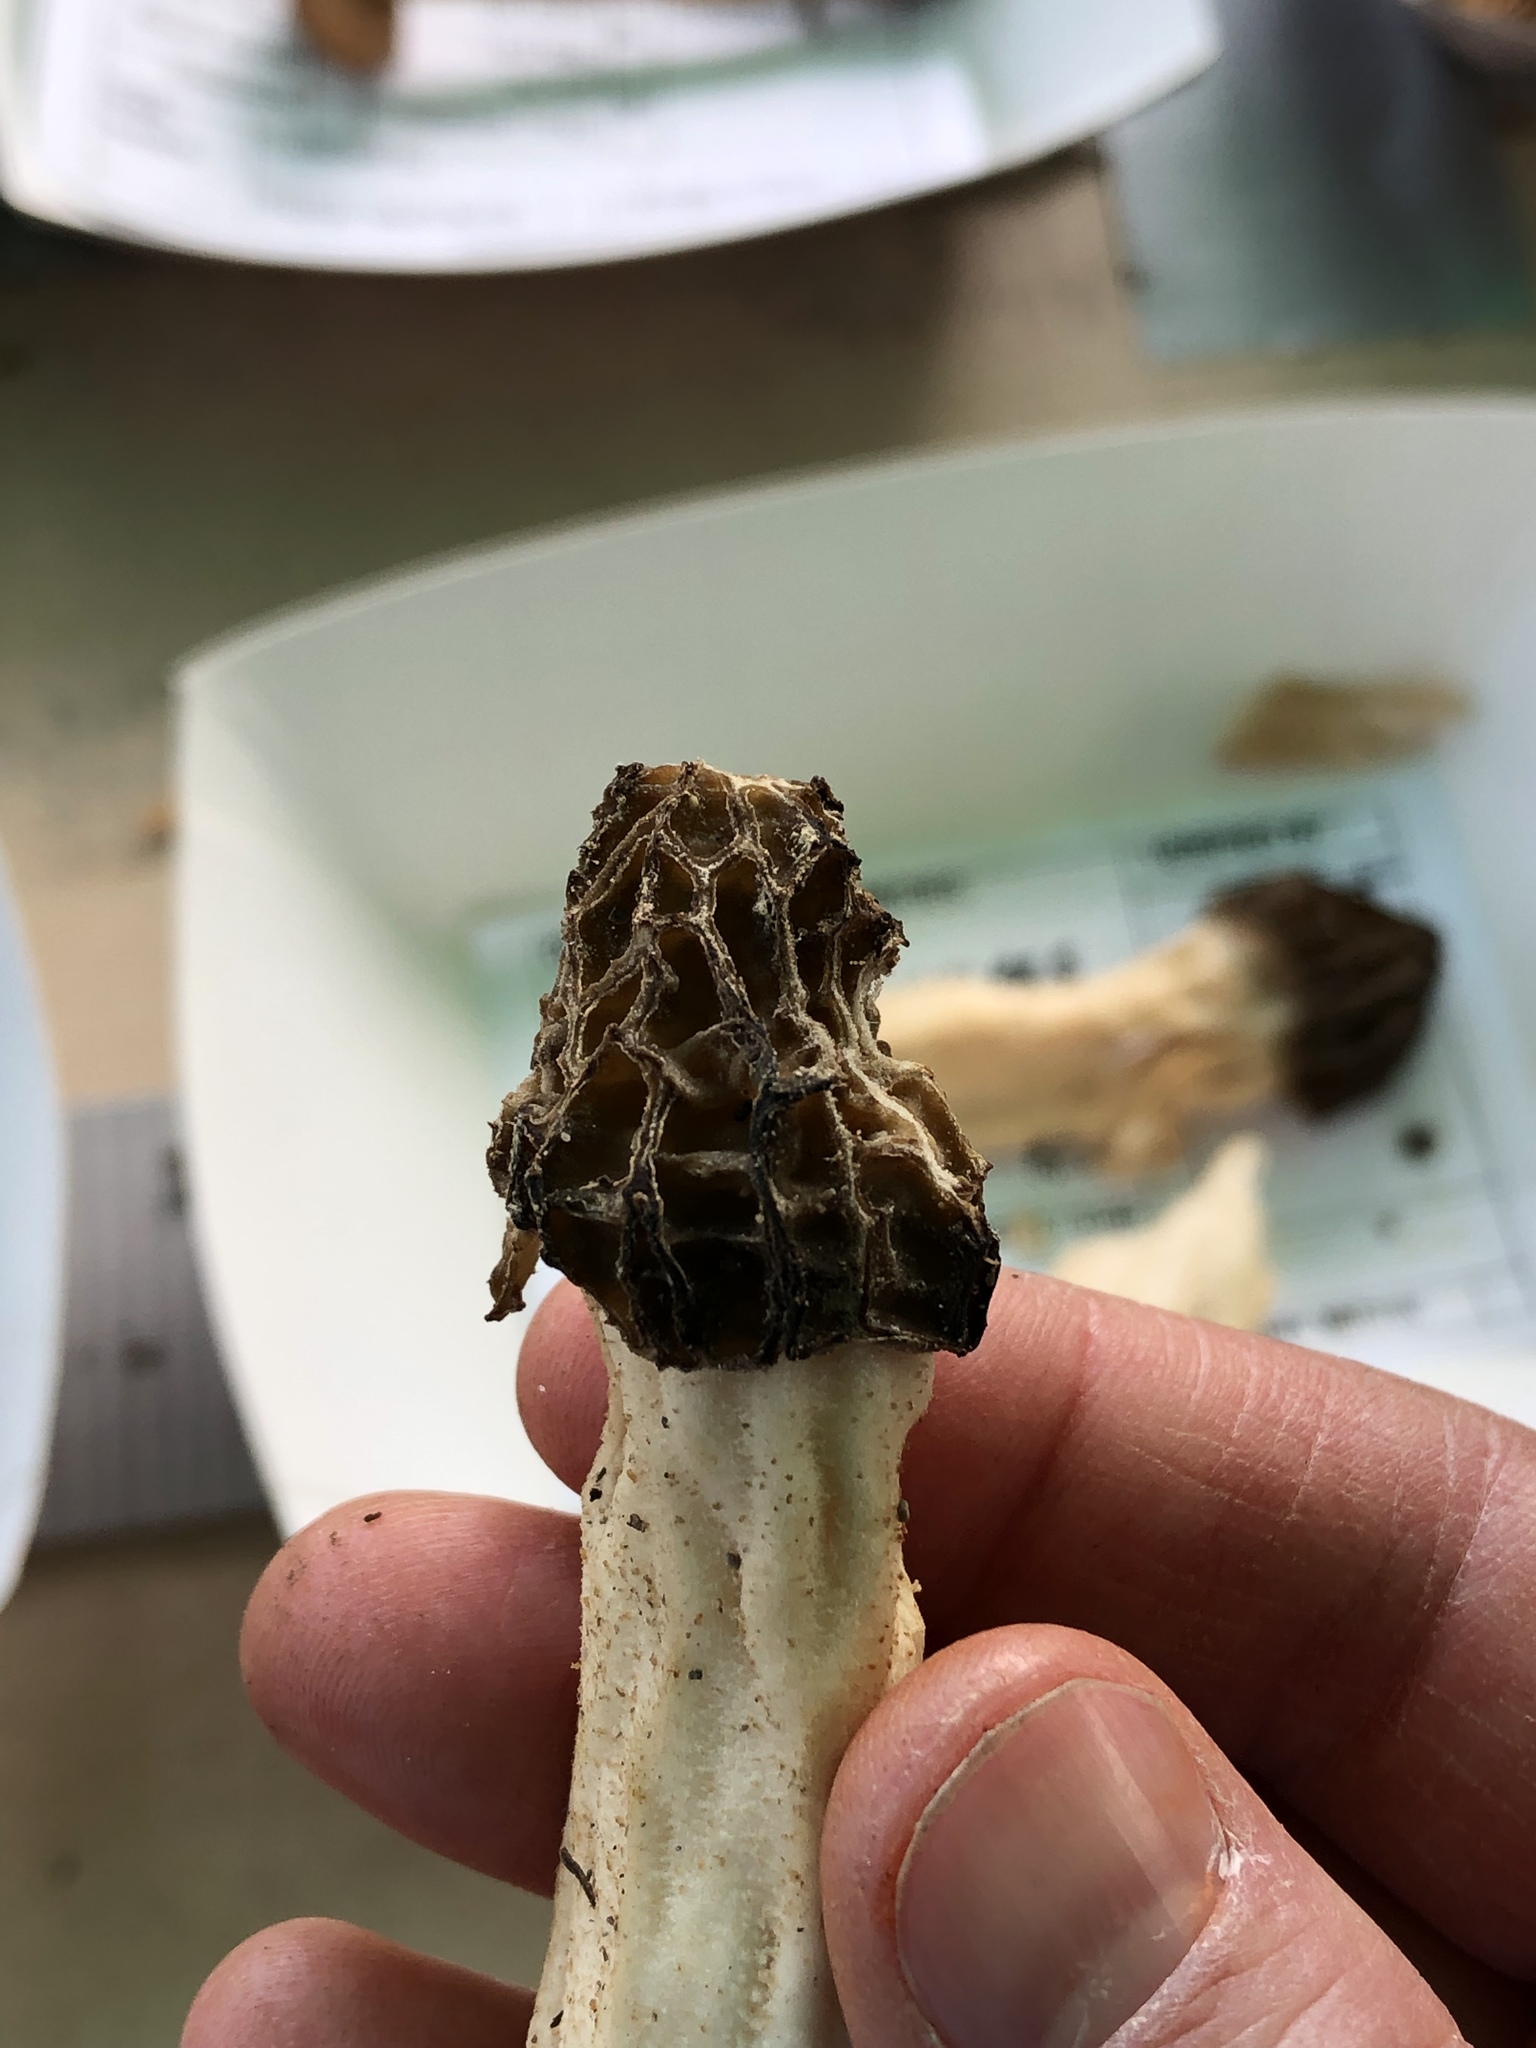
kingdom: Fungi
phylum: Ascomycota
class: Pezizomycetes
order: Pezizales
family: Morchellaceae
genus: Morchella
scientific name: Morchella punctipes
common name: Half-free morel
